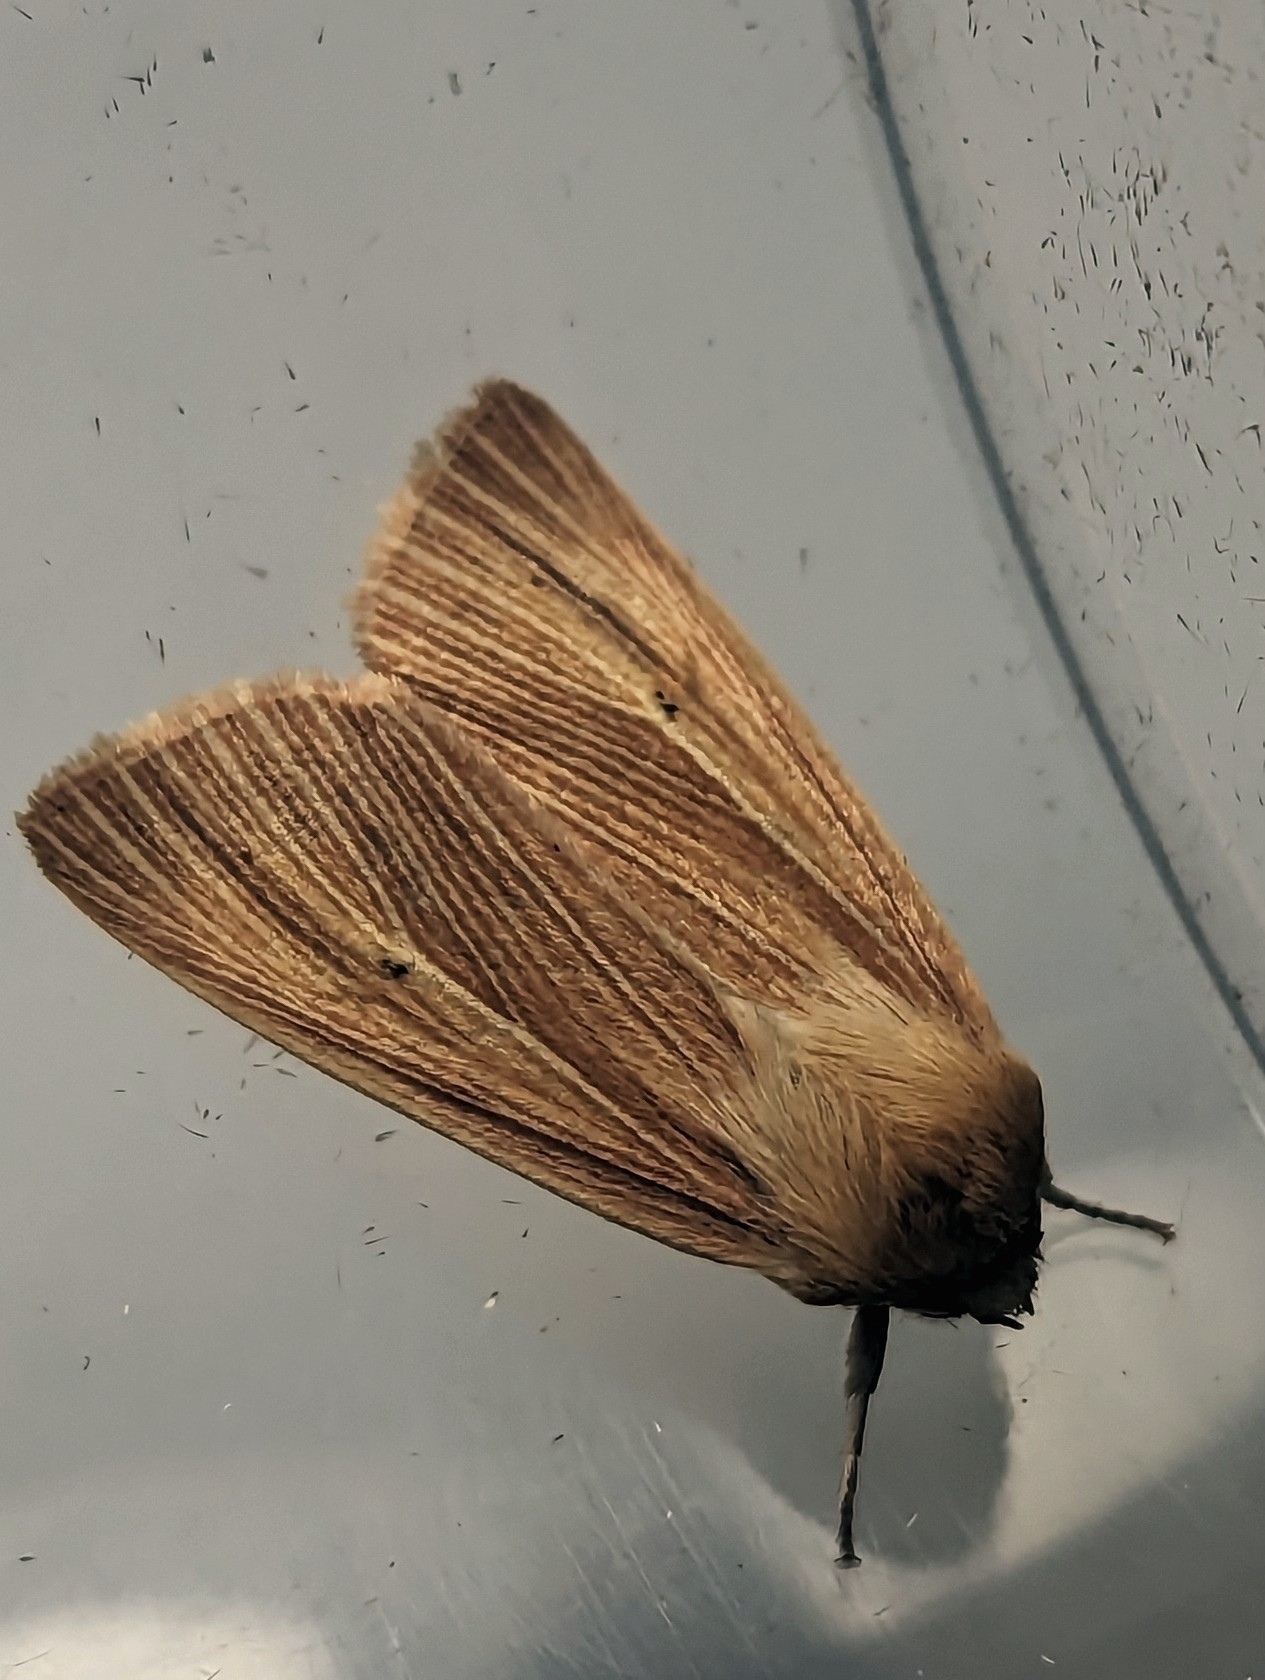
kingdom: Animalia
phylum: Arthropoda
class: Insecta
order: Lepidoptera
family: Noctuidae
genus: Mythimna
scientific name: Mythimna impura
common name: Smoky wainscot
